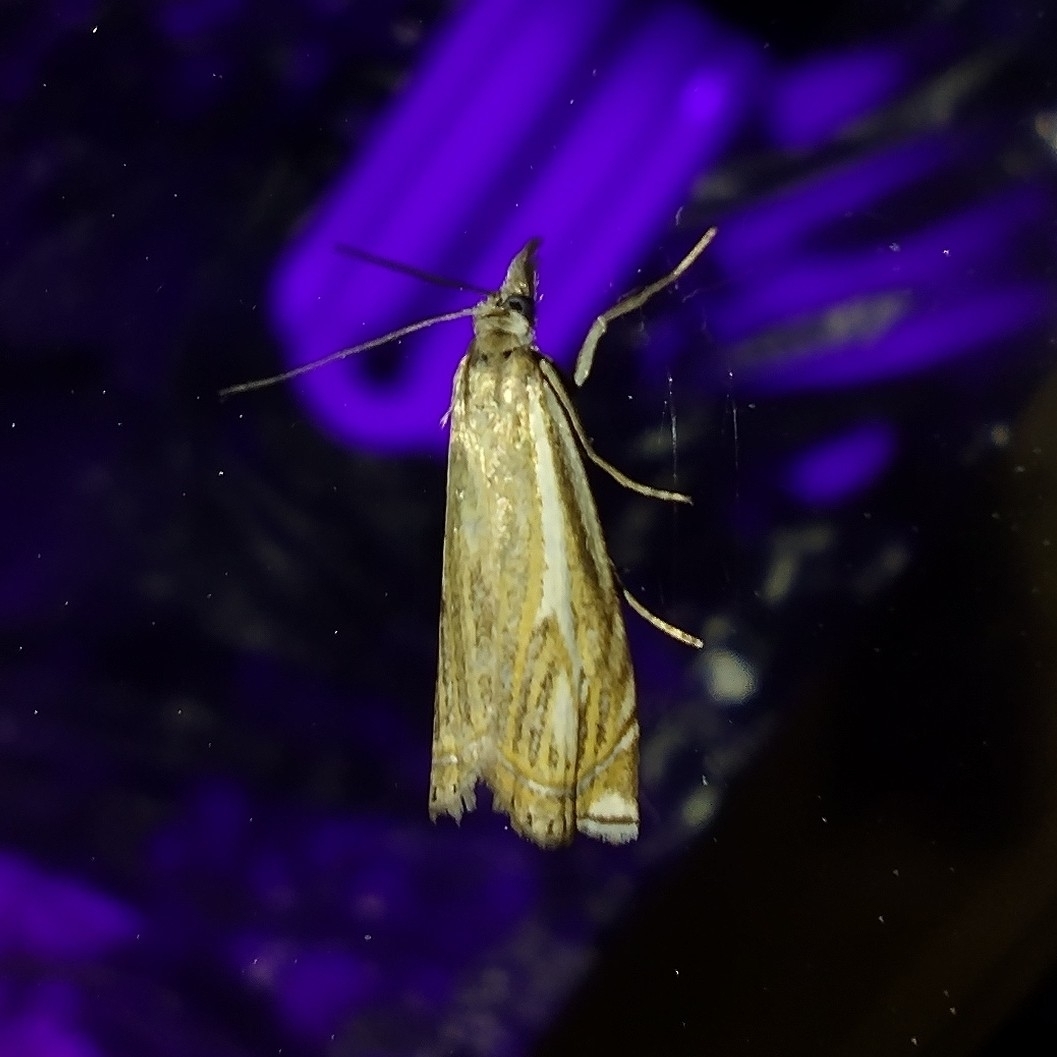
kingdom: Animalia
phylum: Arthropoda
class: Insecta
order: Lepidoptera
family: Crambidae
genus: Crambus
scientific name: Crambus nemorella
